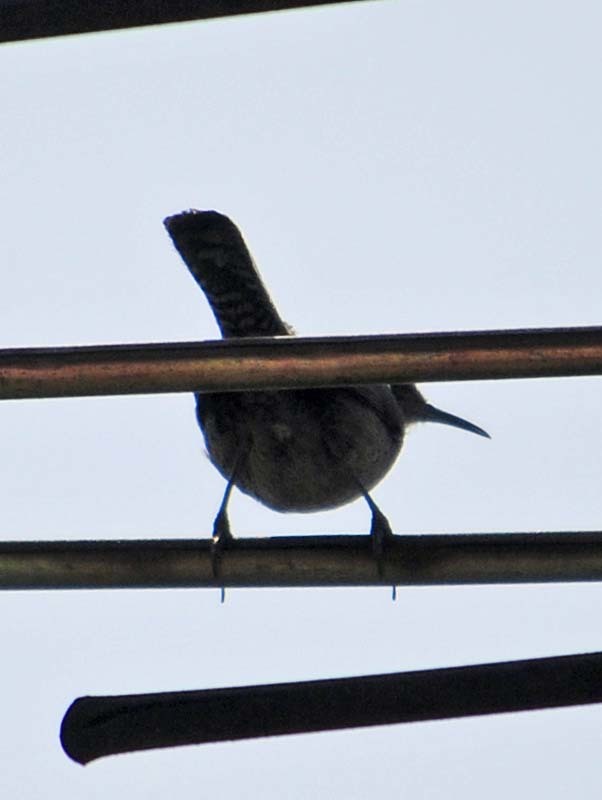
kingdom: Animalia
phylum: Chordata
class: Aves
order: Passeriformes
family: Troglodytidae
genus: Thryomanes
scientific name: Thryomanes bewickii
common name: Bewick's wren
